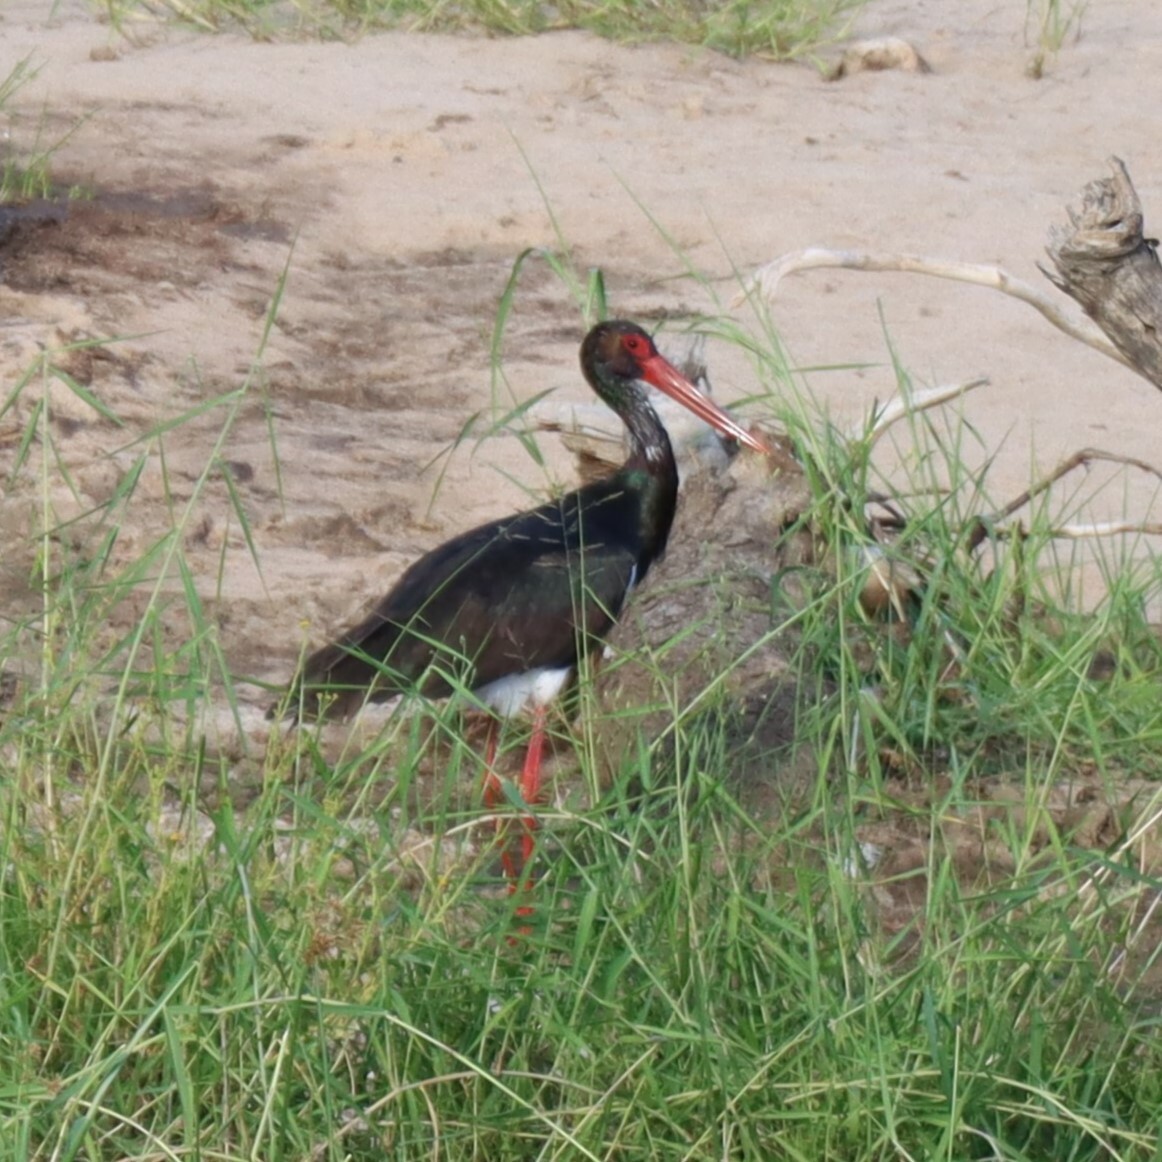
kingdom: Animalia
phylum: Chordata
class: Aves
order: Ciconiiformes
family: Ciconiidae
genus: Ciconia
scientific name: Ciconia nigra
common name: Black stork
